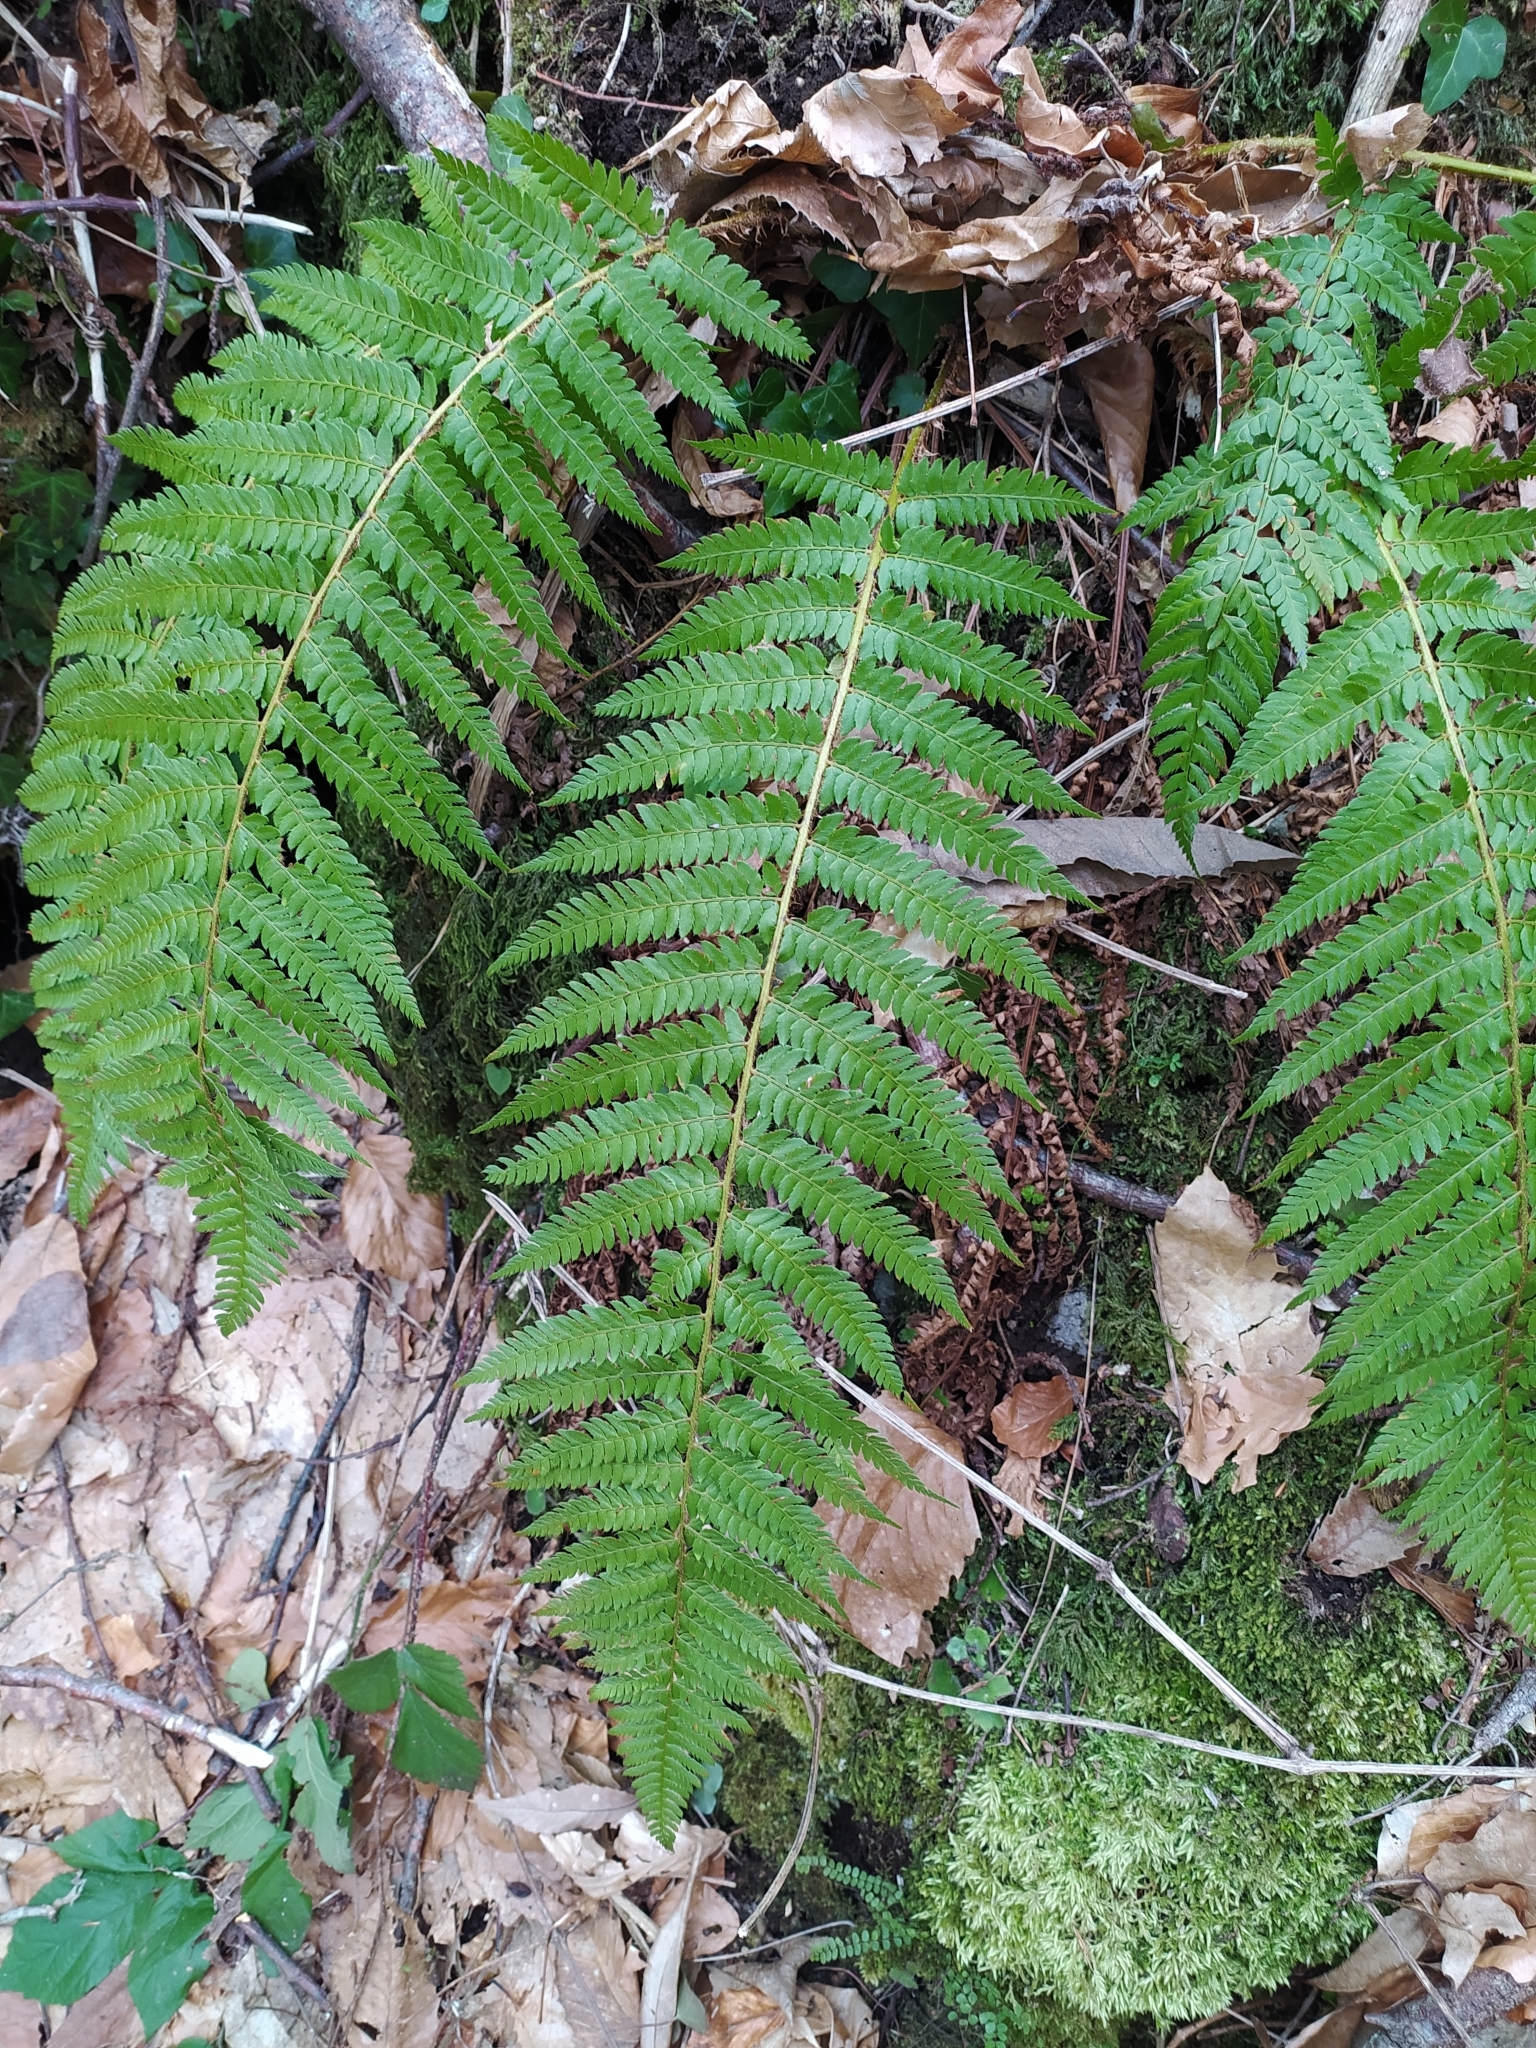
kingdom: Plantae
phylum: Tracheophyta
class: Polypodiopsida
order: Polypodiales
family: Dryopteridaceae
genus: Polystichum
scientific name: Polystichum setiferum
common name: Soft shield-fern
